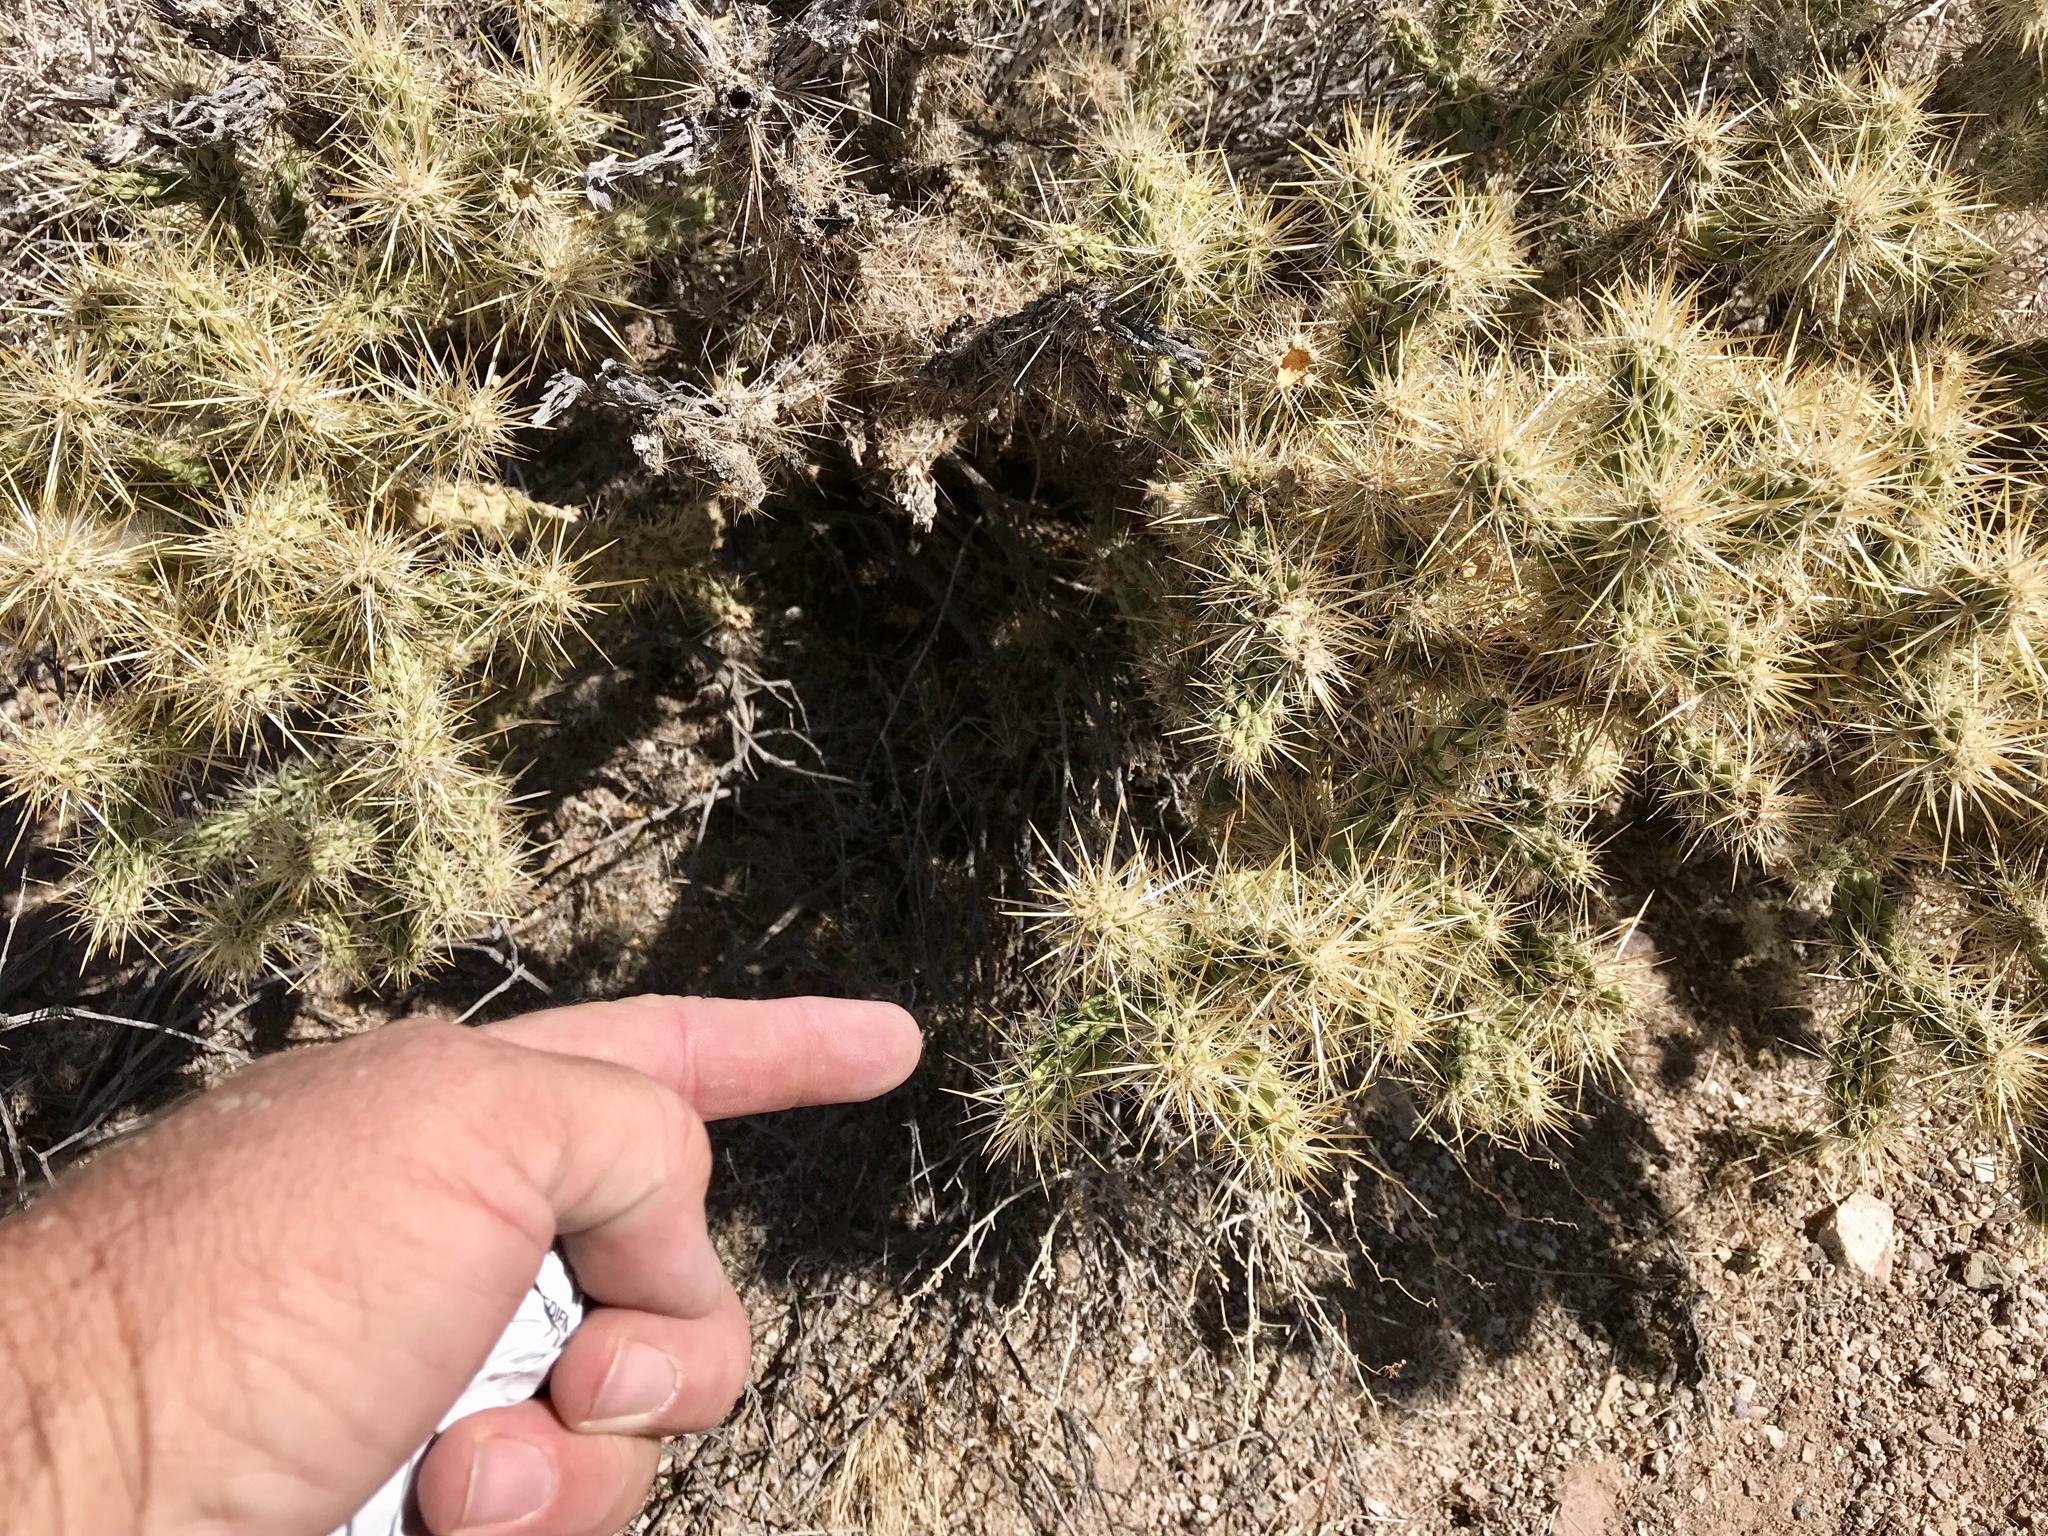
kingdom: Plantae
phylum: Tracheophyta
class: Magnoliopsida
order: Caryophyllales
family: Cactaceae
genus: Cylindropuntia
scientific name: Cylindropuntia echinocarpa
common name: Ground cholla
